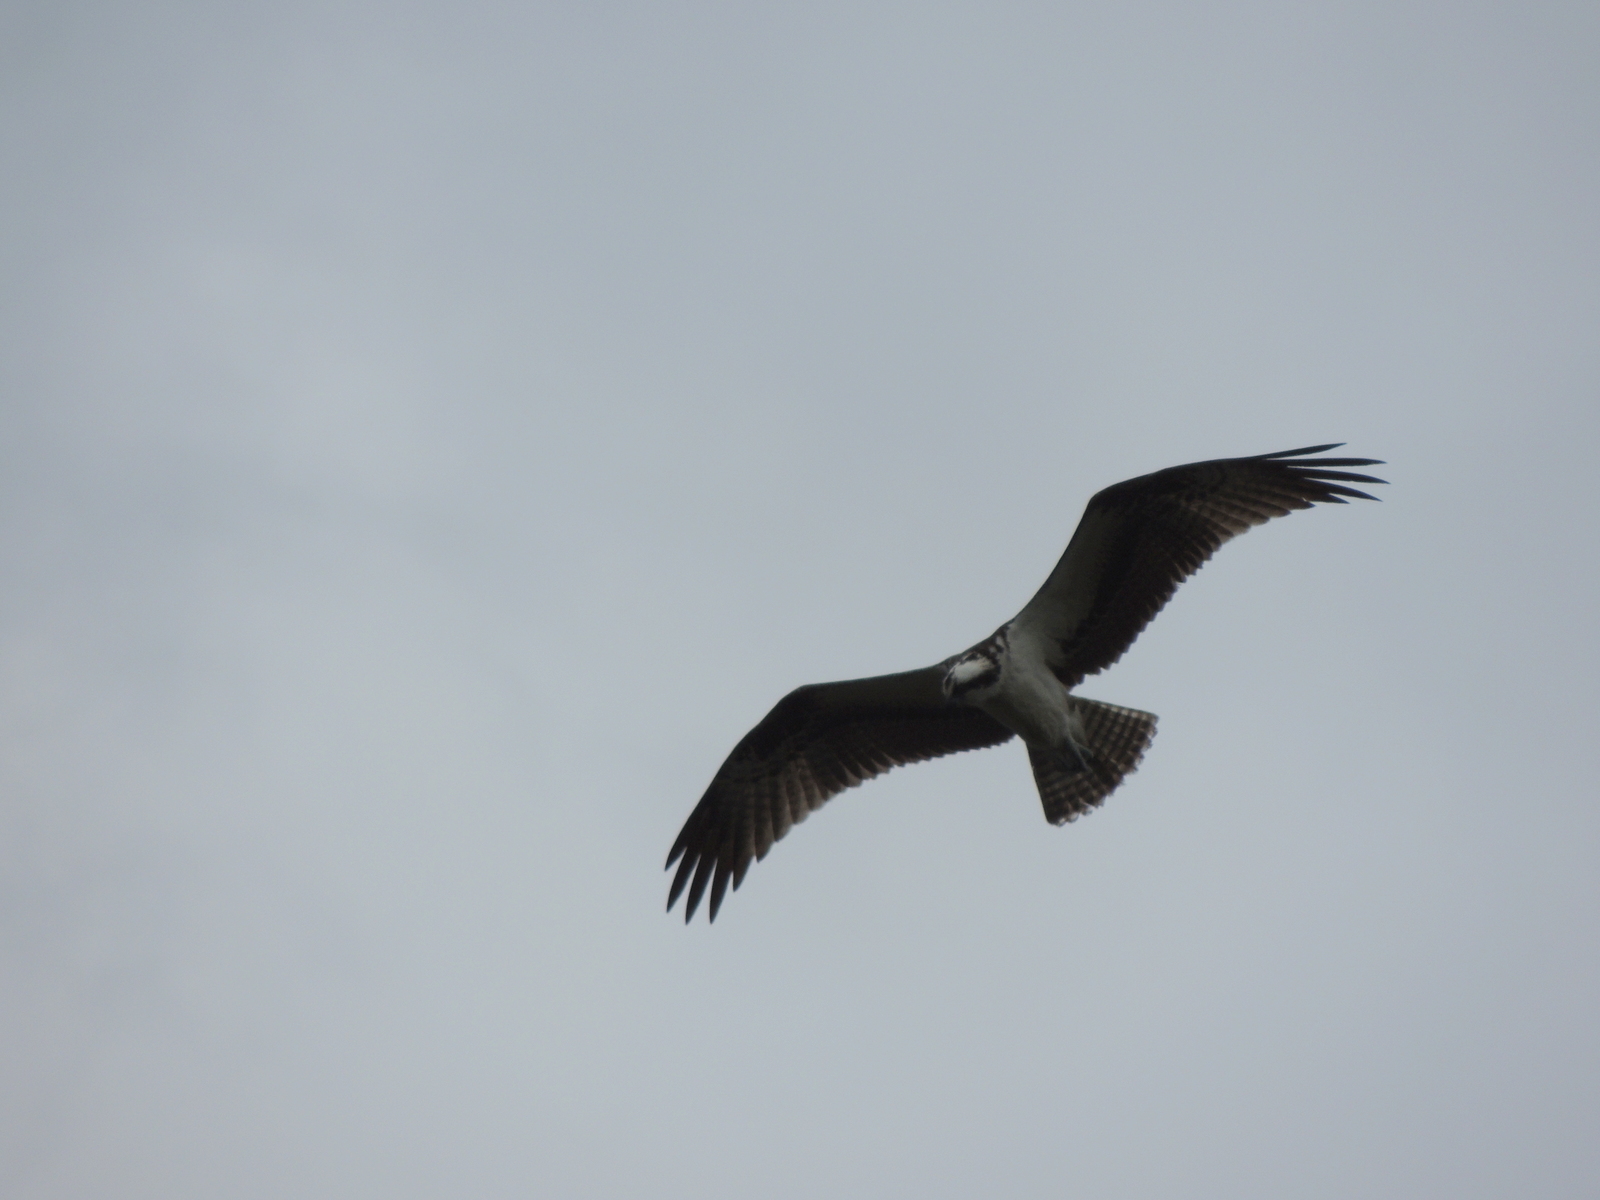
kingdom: Animalia
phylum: Chordata
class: Aves
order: Accipitriformes
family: Pandionidae
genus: Pandion
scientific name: Pandion haliaetus
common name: Osprey
